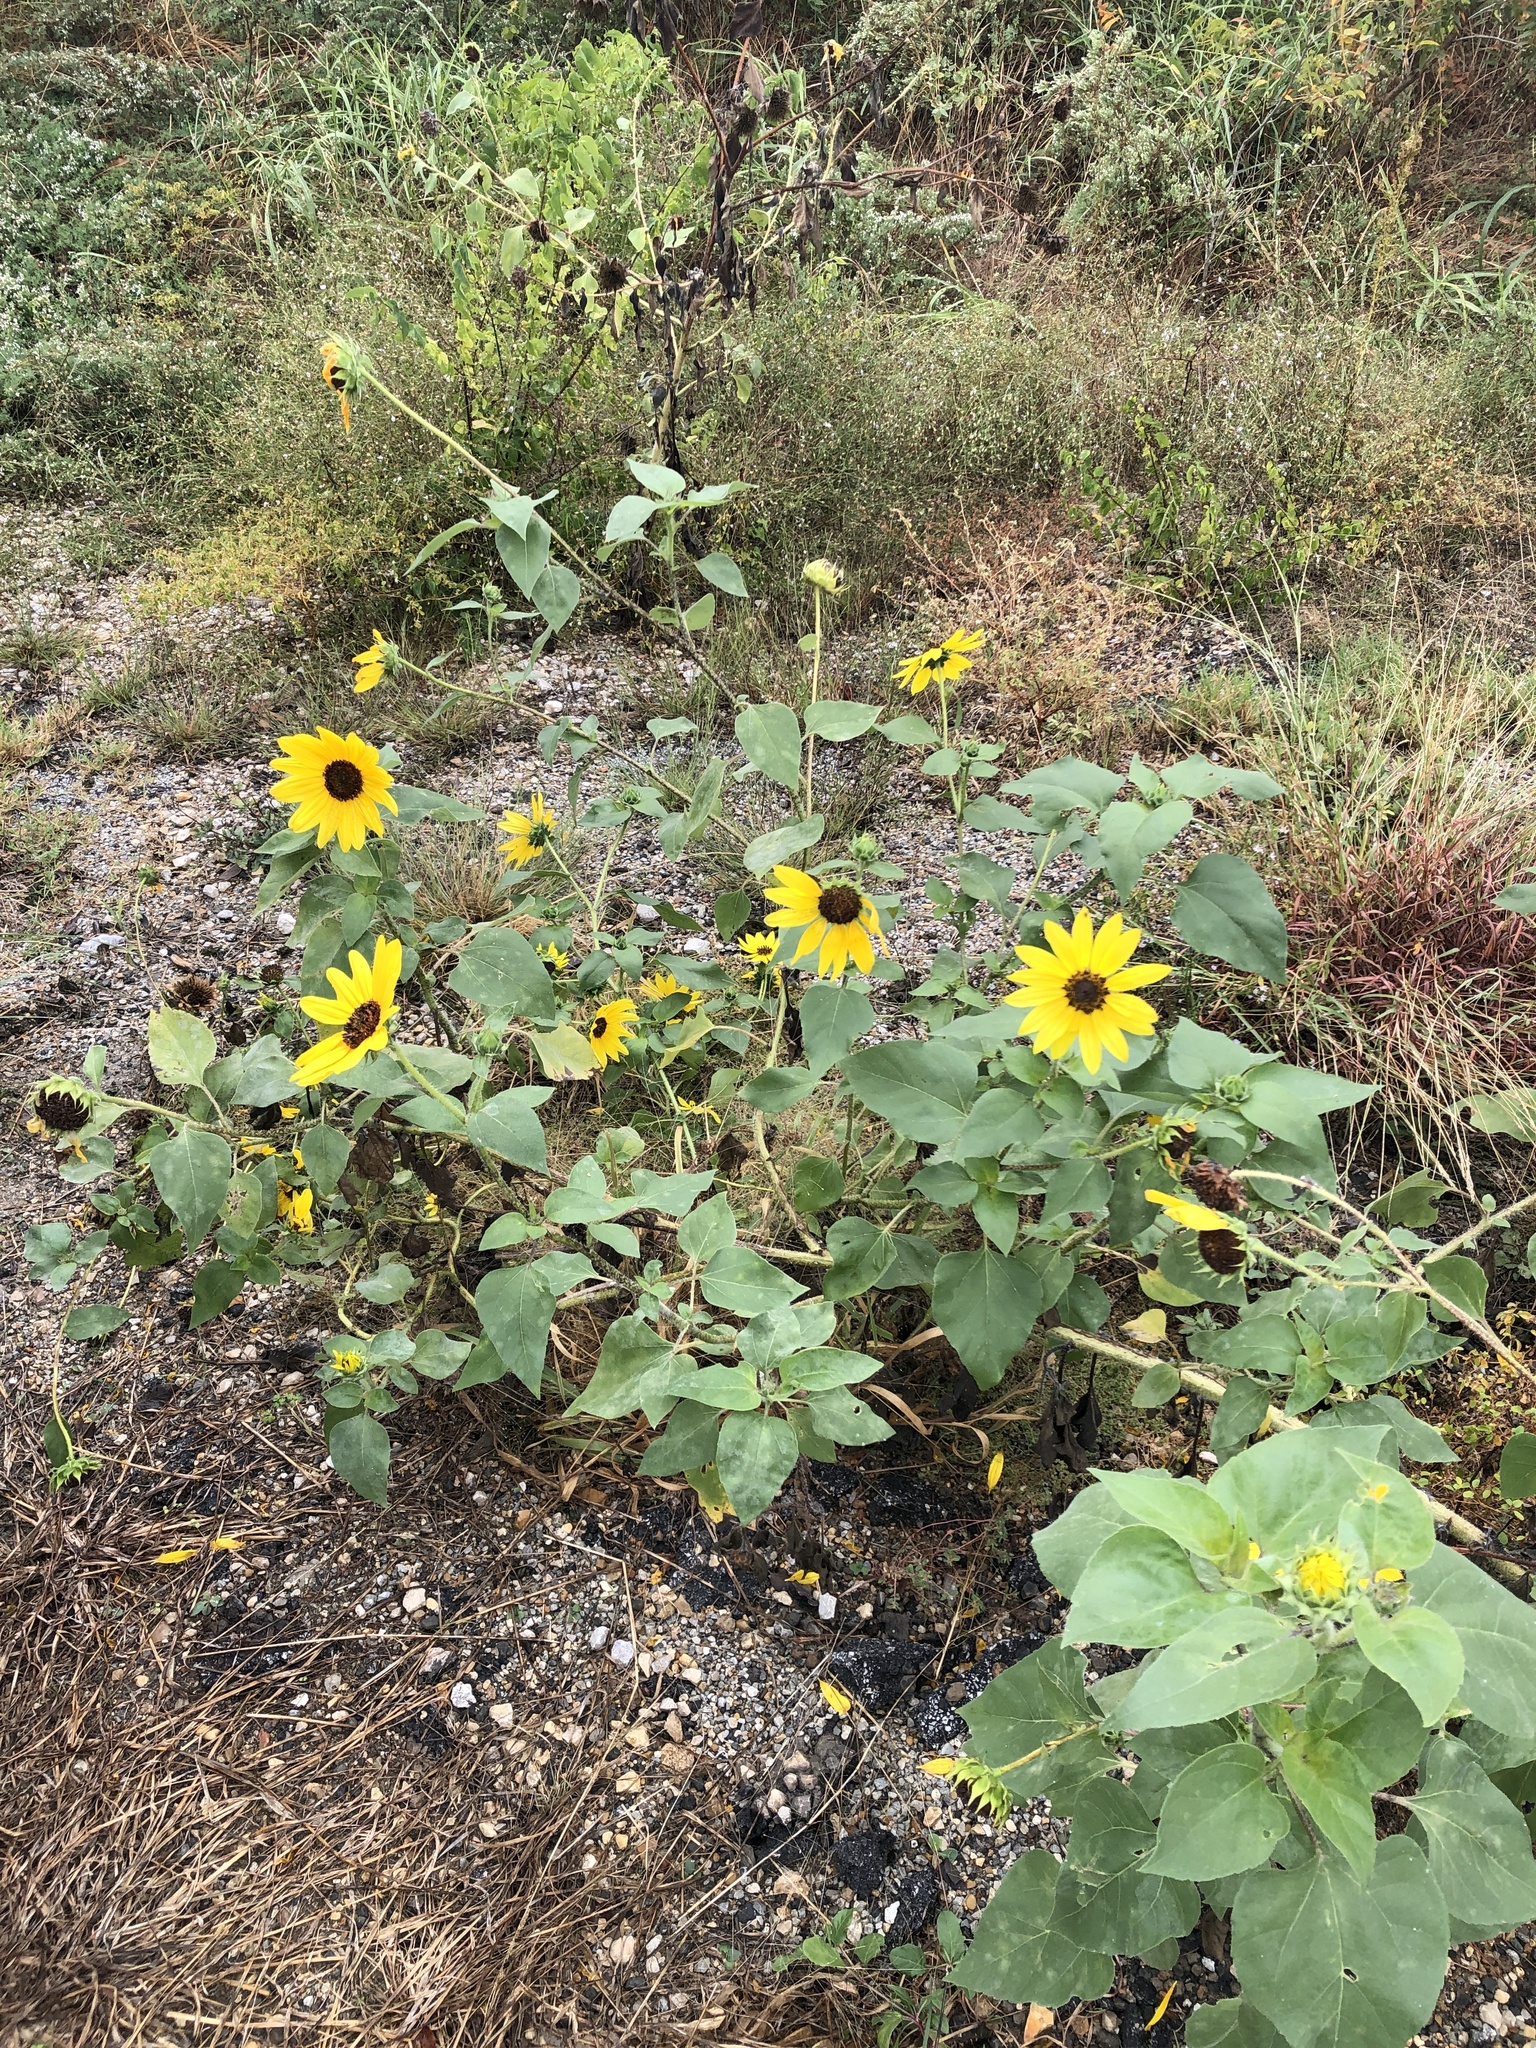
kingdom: Plantae
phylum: Tracheophyta
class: Magnoliopsida
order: Asterales
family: Asteraceae
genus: Helianthus
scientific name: Helianthus annuus
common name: Sunflower
